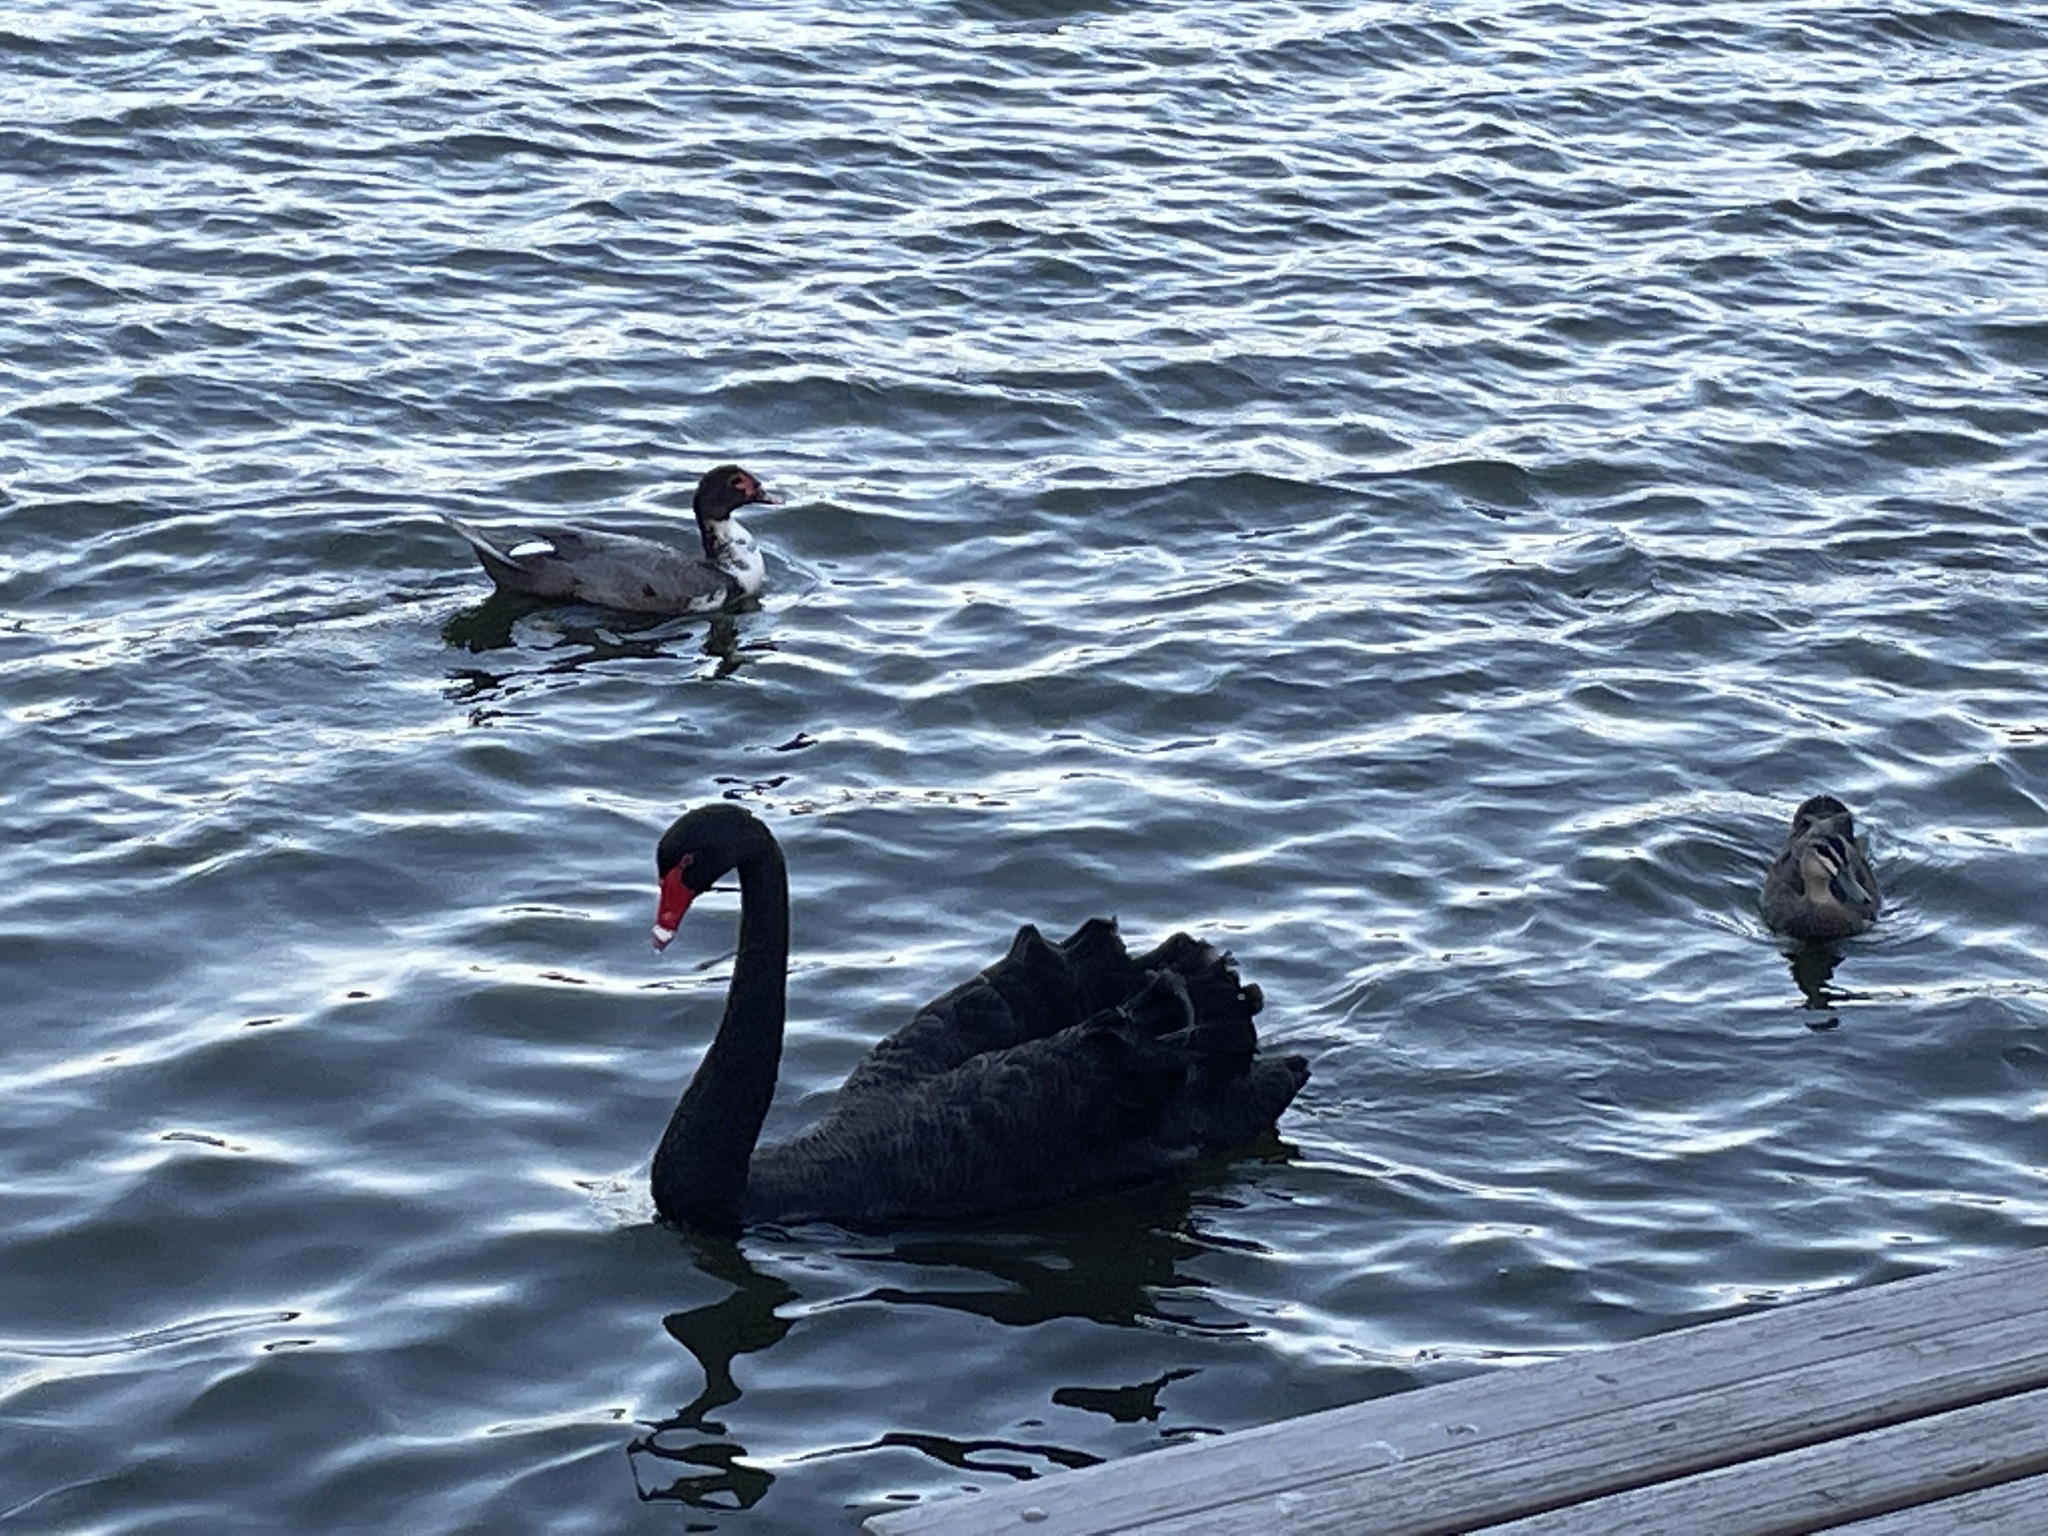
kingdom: Animalia
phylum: Chordata
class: Aves
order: Anseriformes
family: Anatidae
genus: Cygnus
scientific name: Cygnus atratus
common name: Black swan
